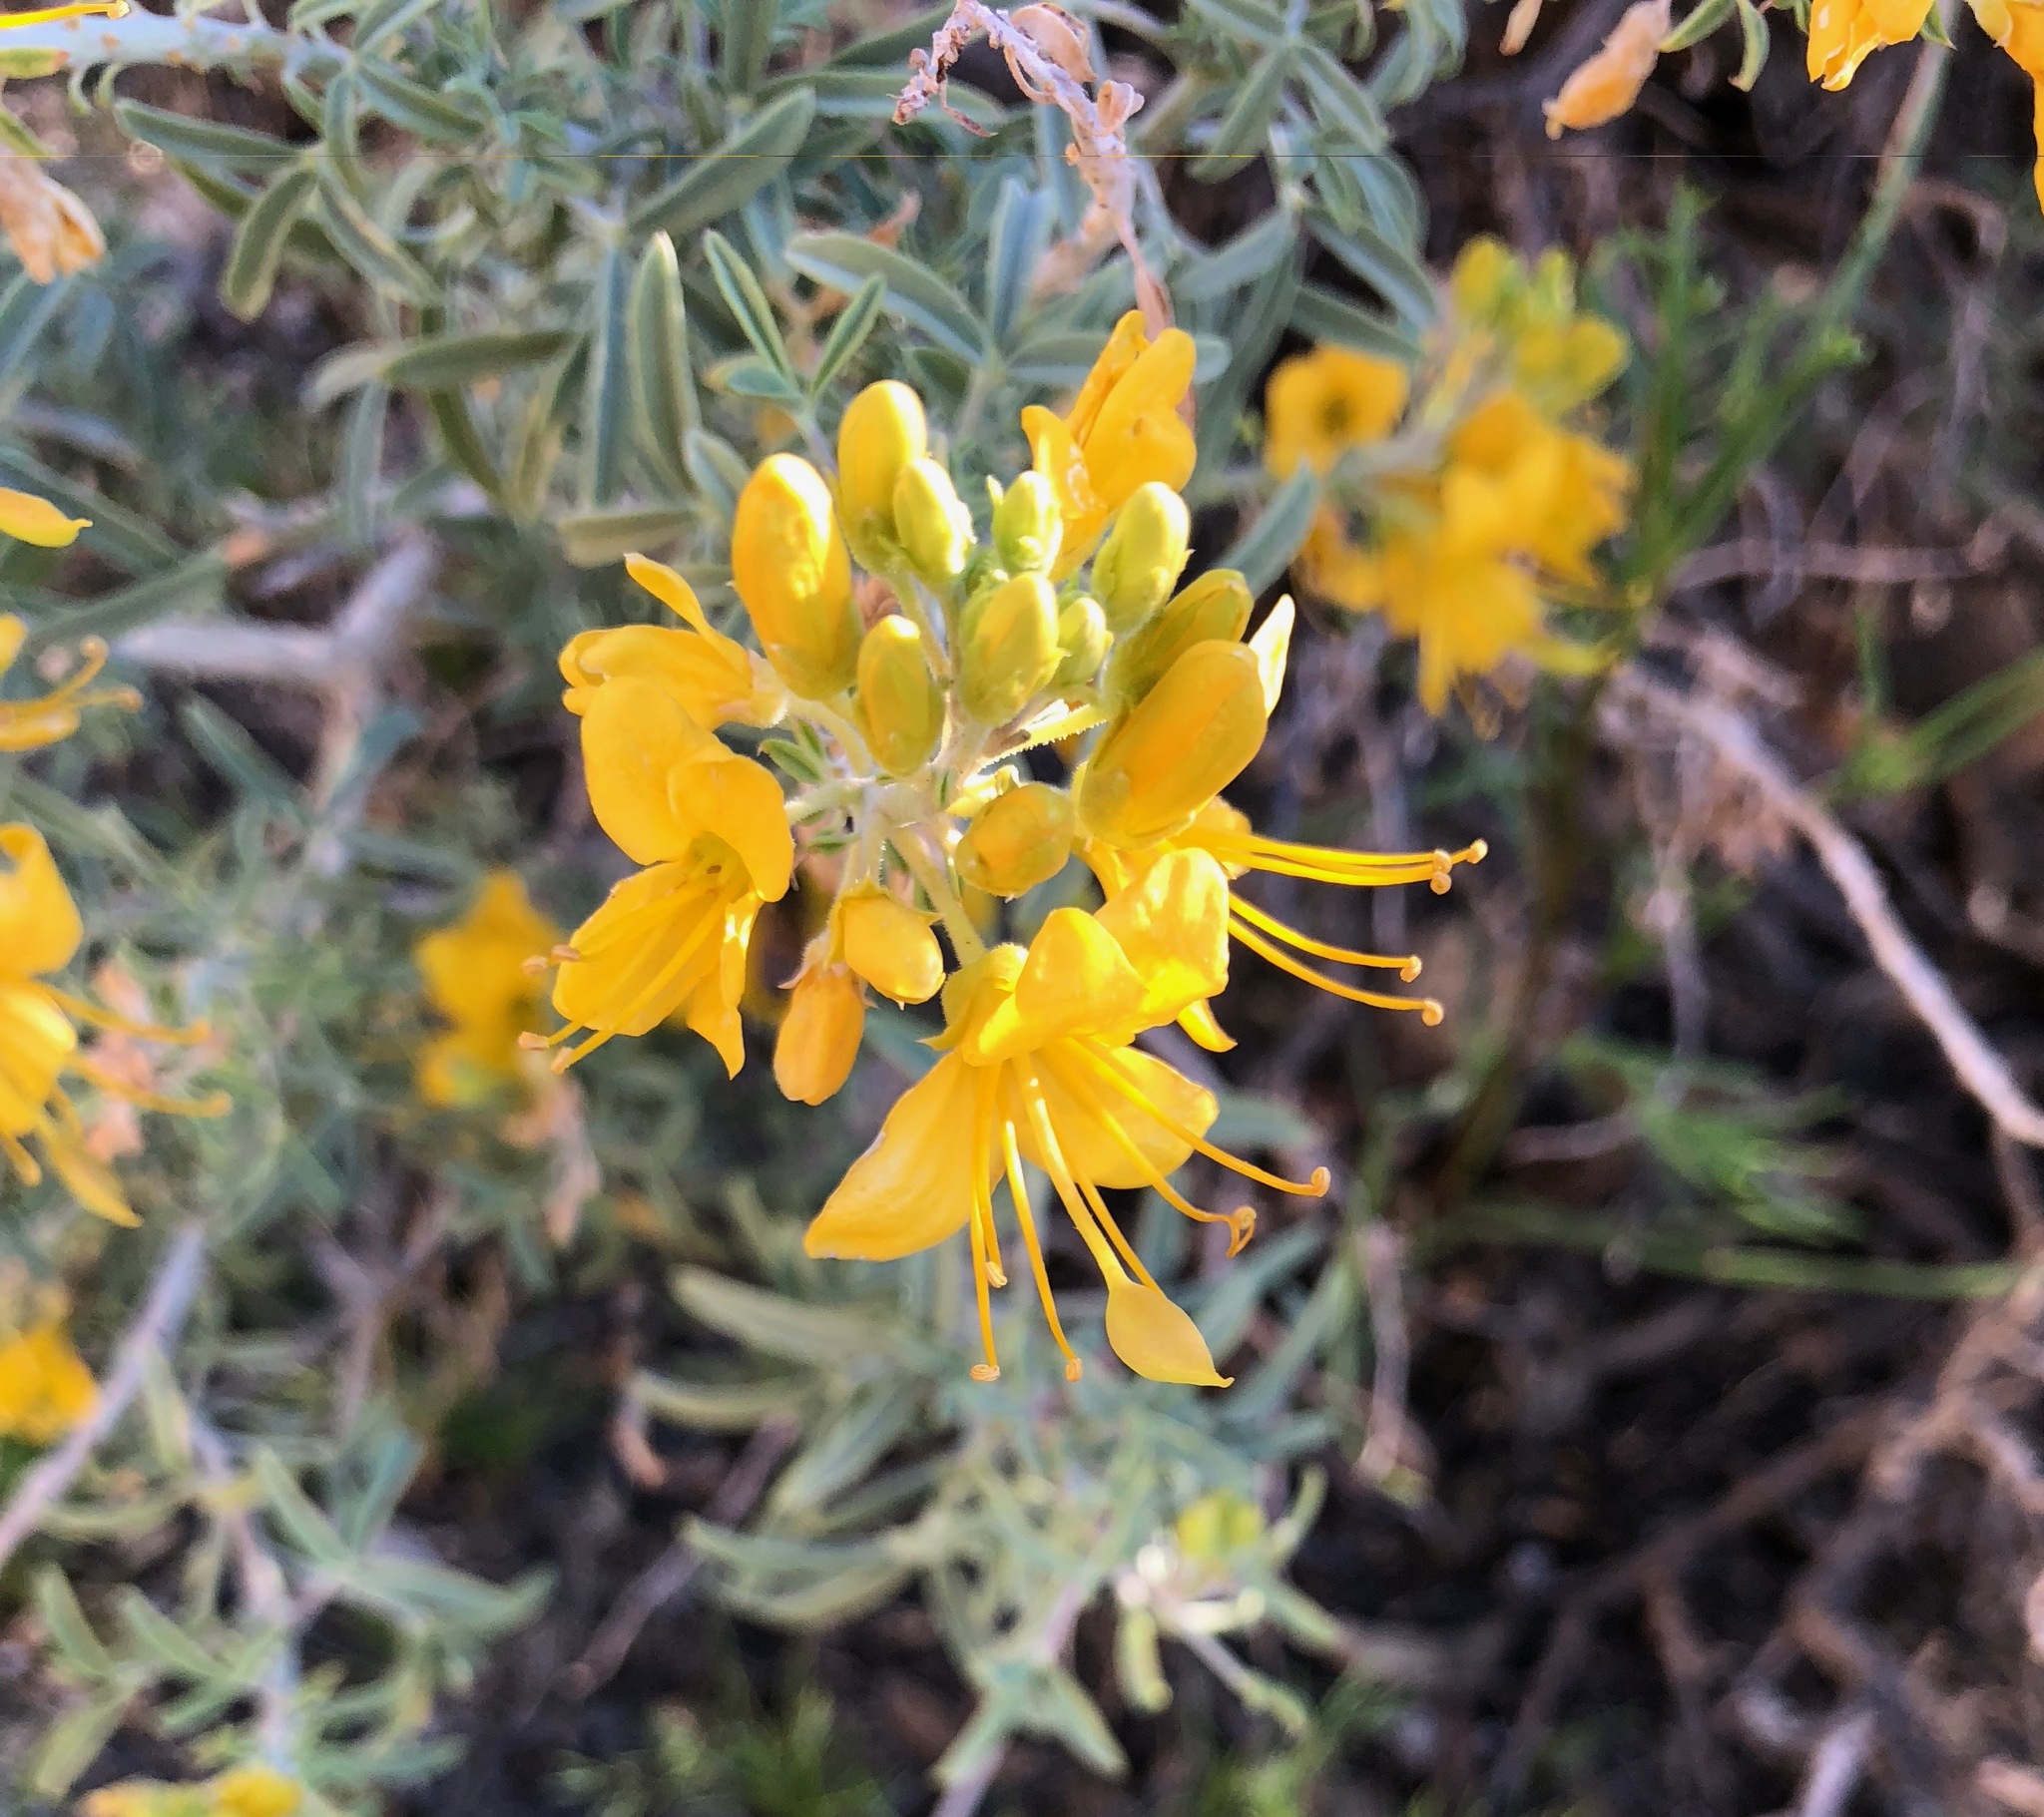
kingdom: Plantae
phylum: Tracheophyta
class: Magnoliopsida
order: Brassicales
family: Cleomaceae
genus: Cleomella
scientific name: Cleomella arborea
